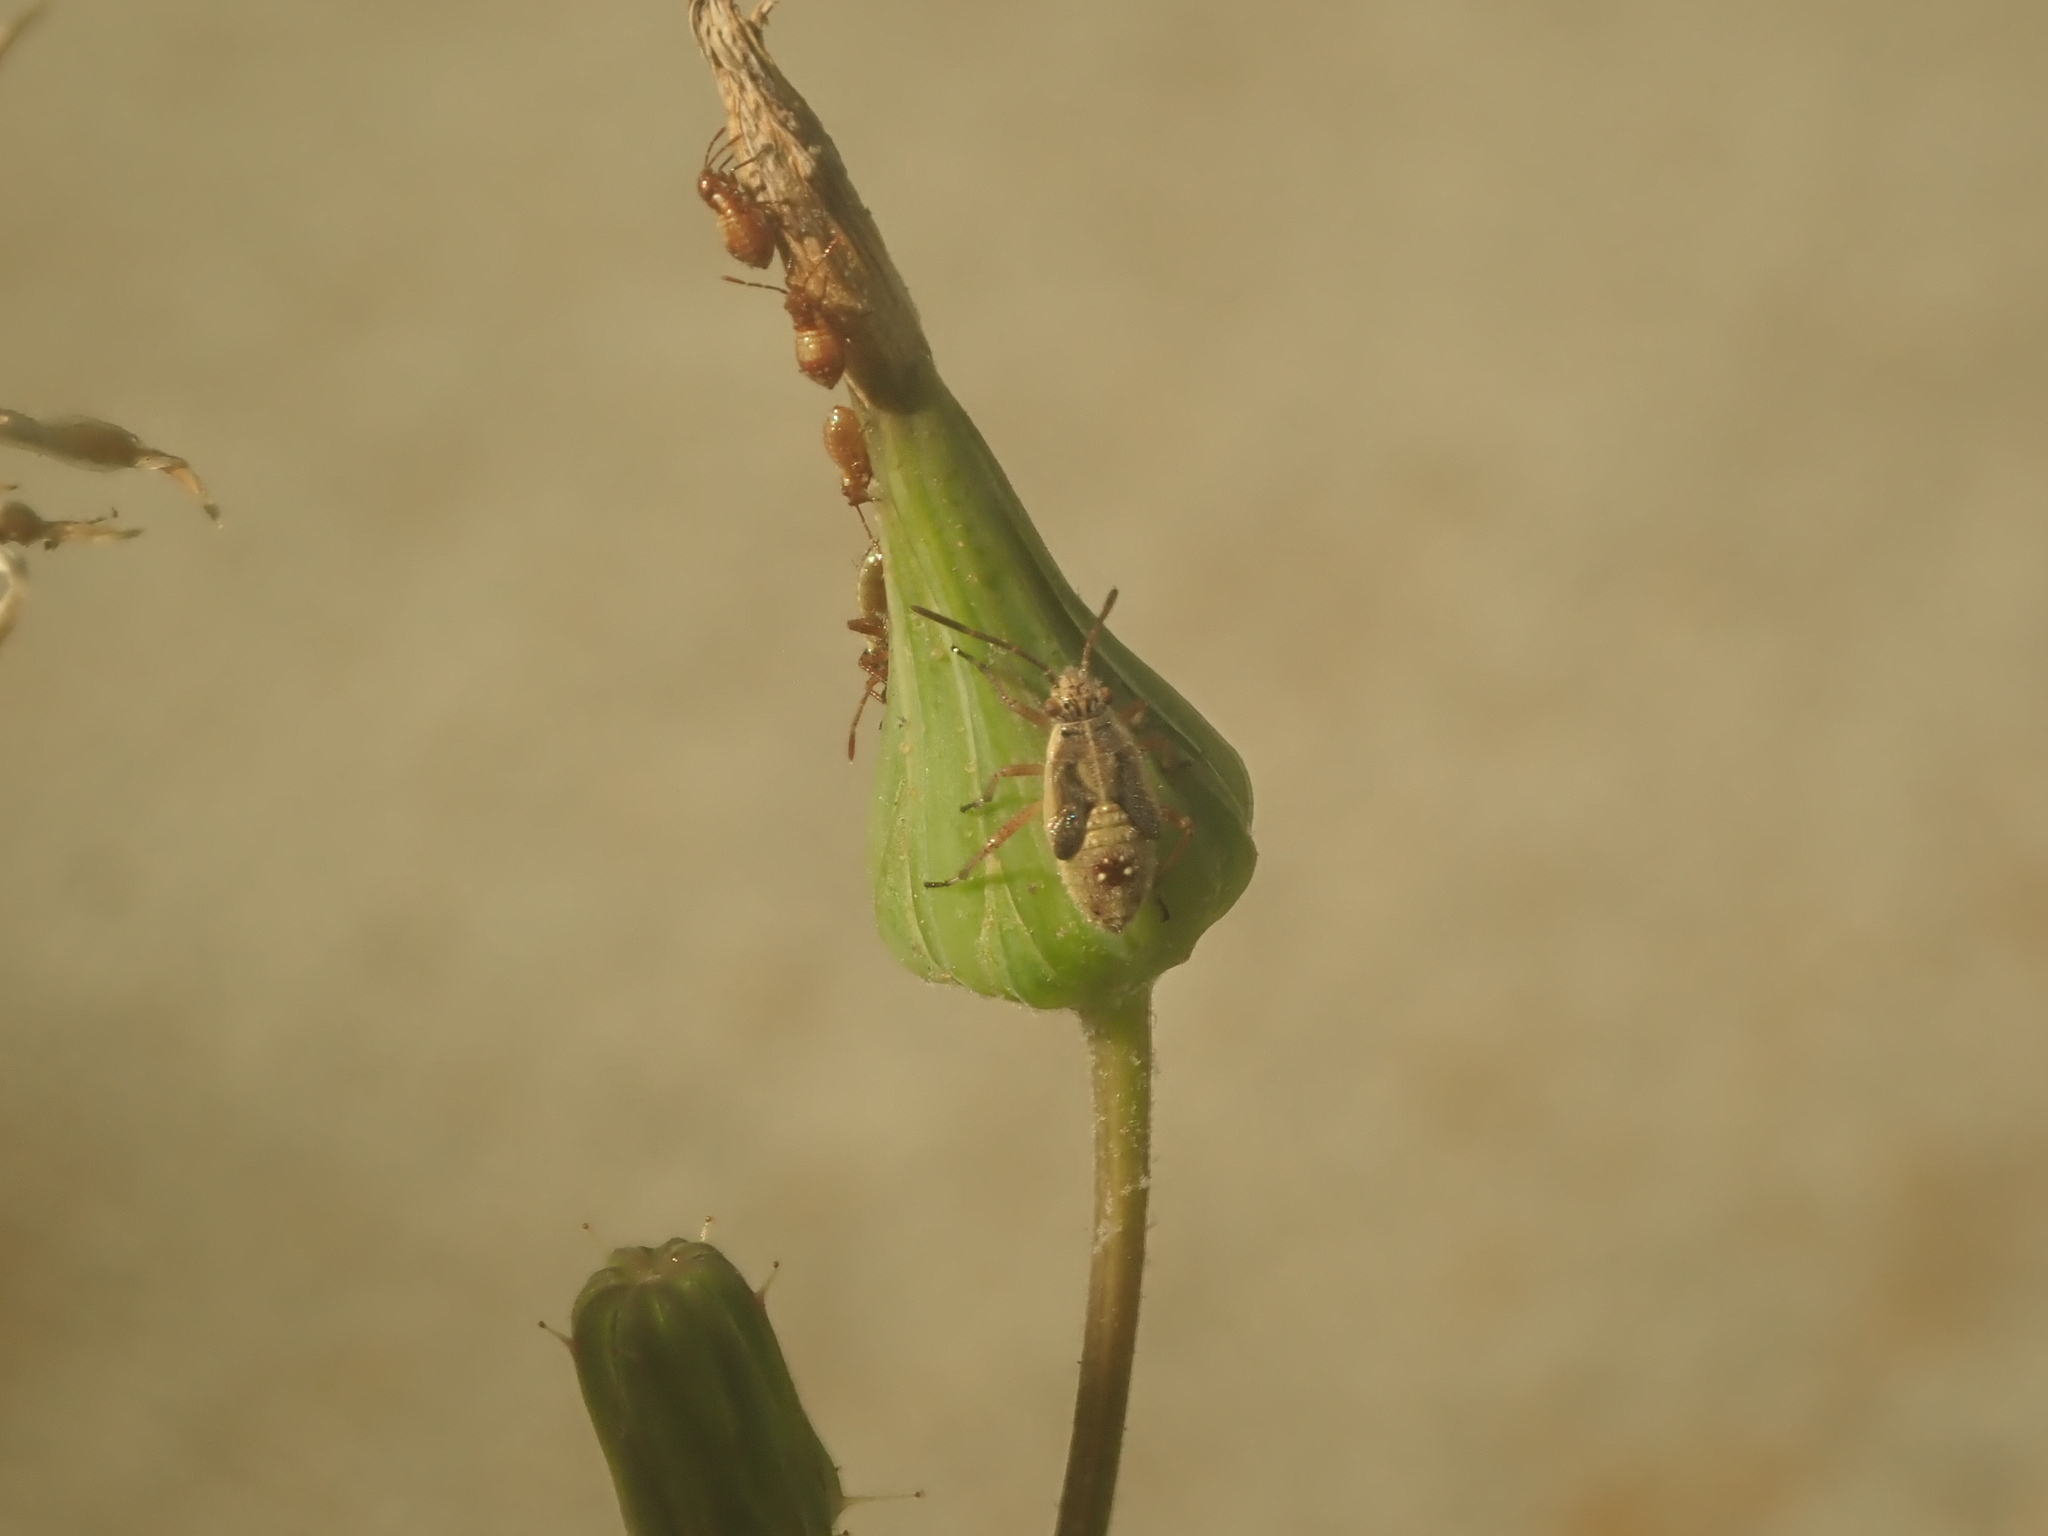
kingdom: Animalia
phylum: Arthropoda
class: Insecta
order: Hemiptera
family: Rhopalidae
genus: Liorhyssus
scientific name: Liorhyssus hyalinus
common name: Scentless plant bug
